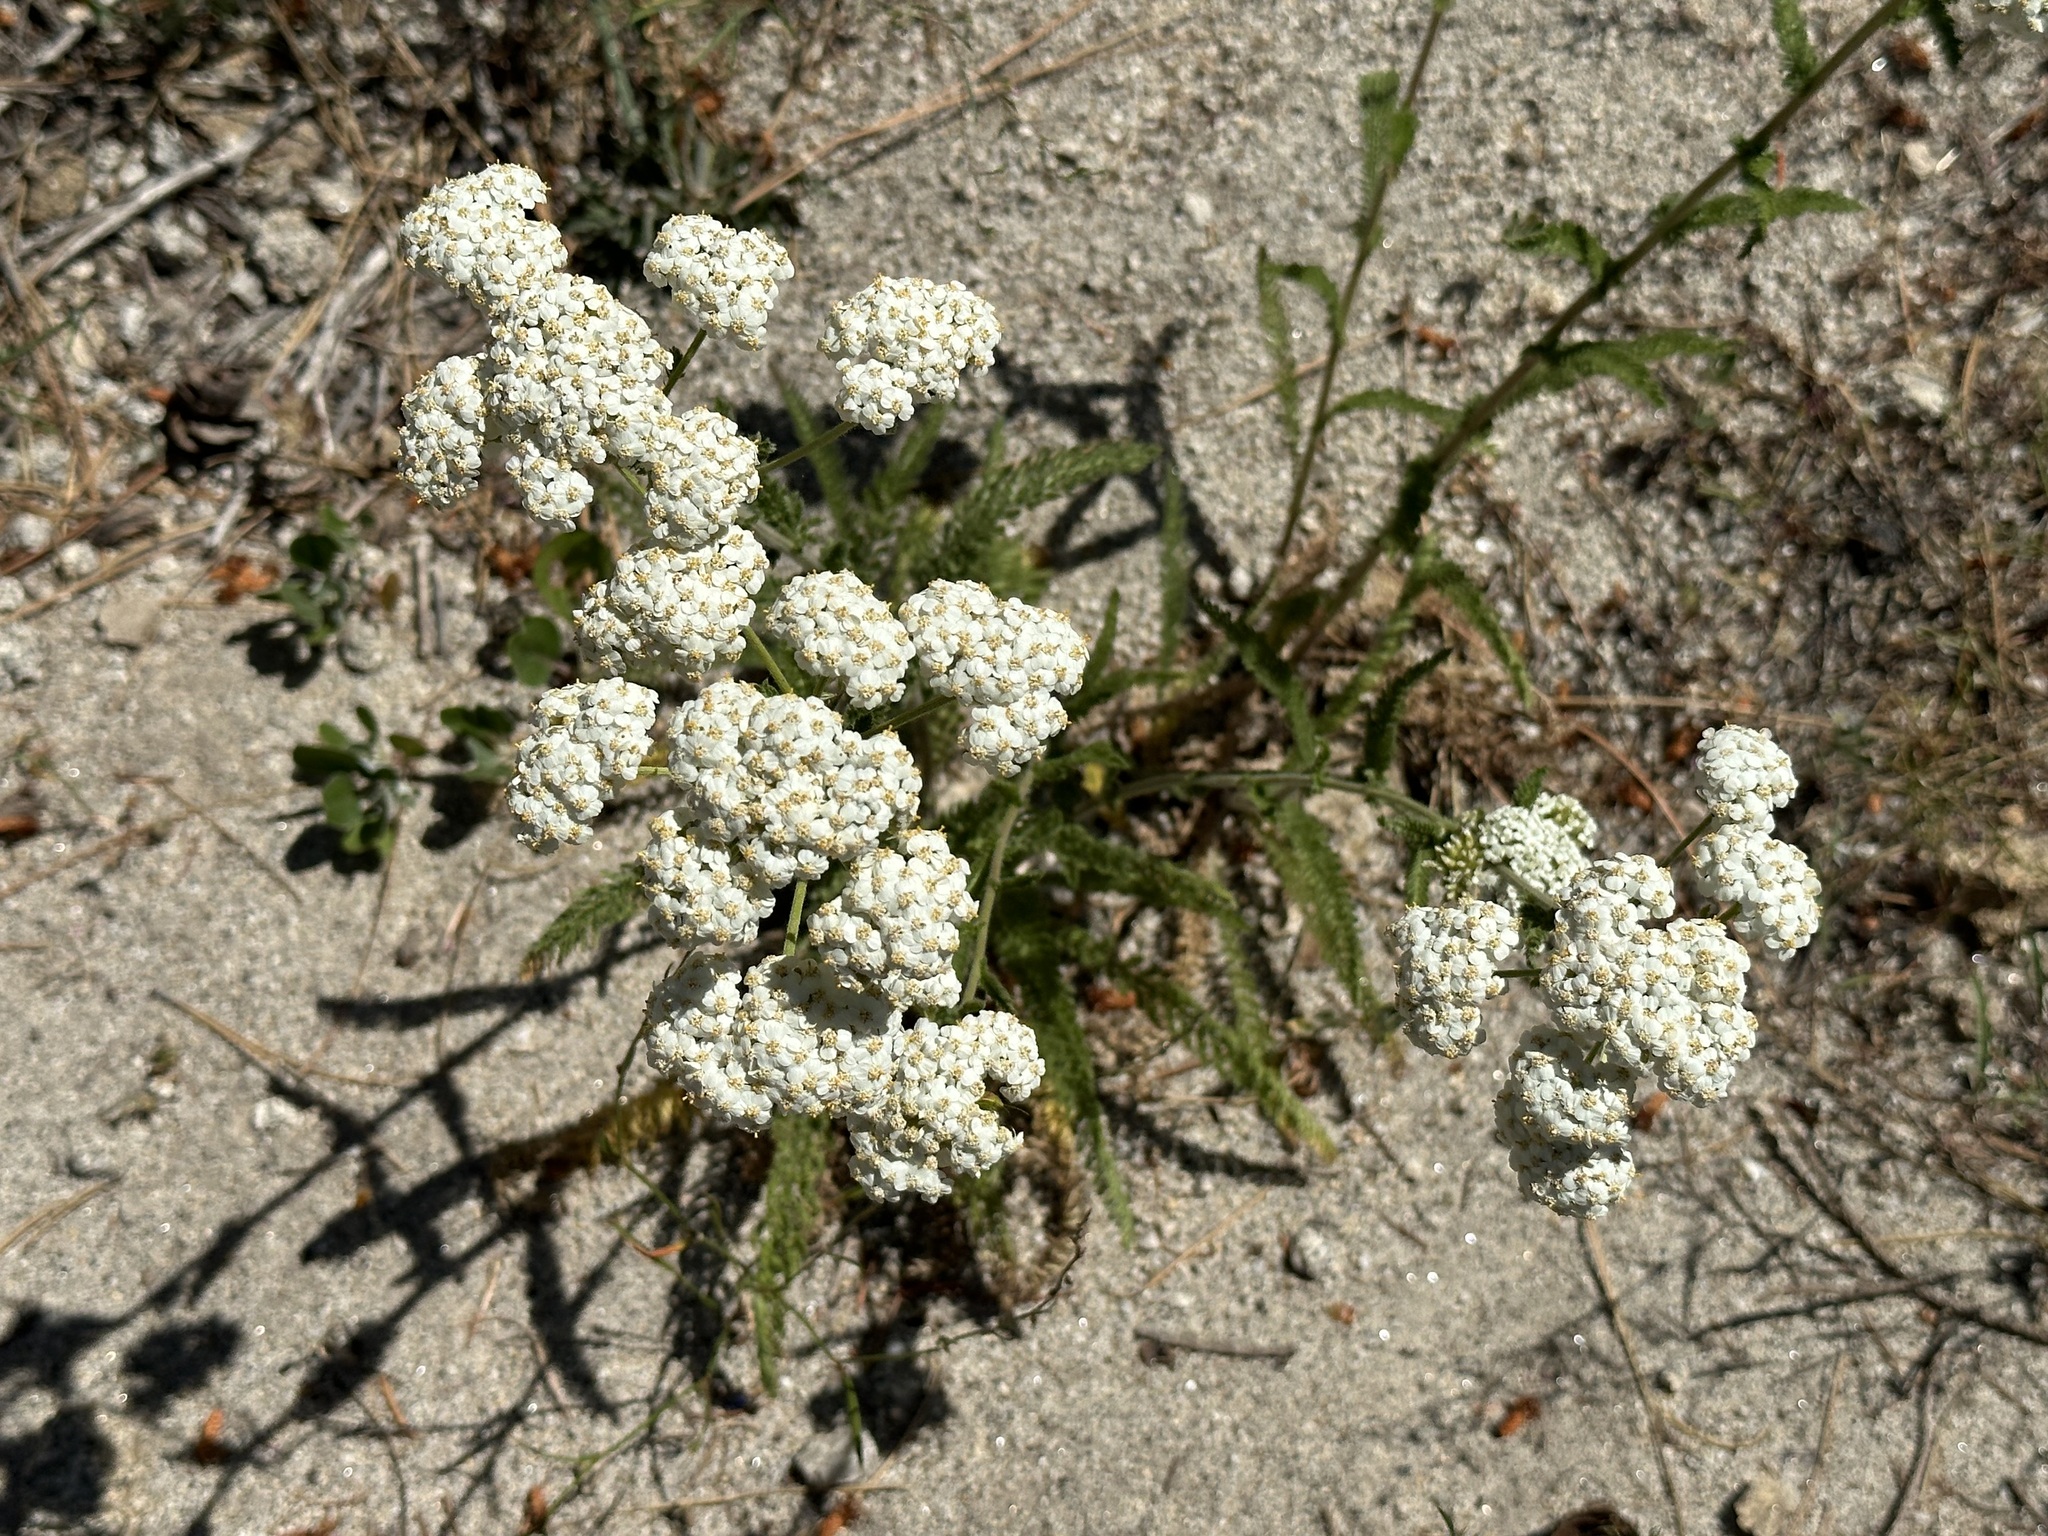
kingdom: Plantae
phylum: Tracheophyta
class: Magnoliopsida
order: Asterales
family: Asteraceae
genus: Achillea
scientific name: Achillea millefolium
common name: Yarrow
